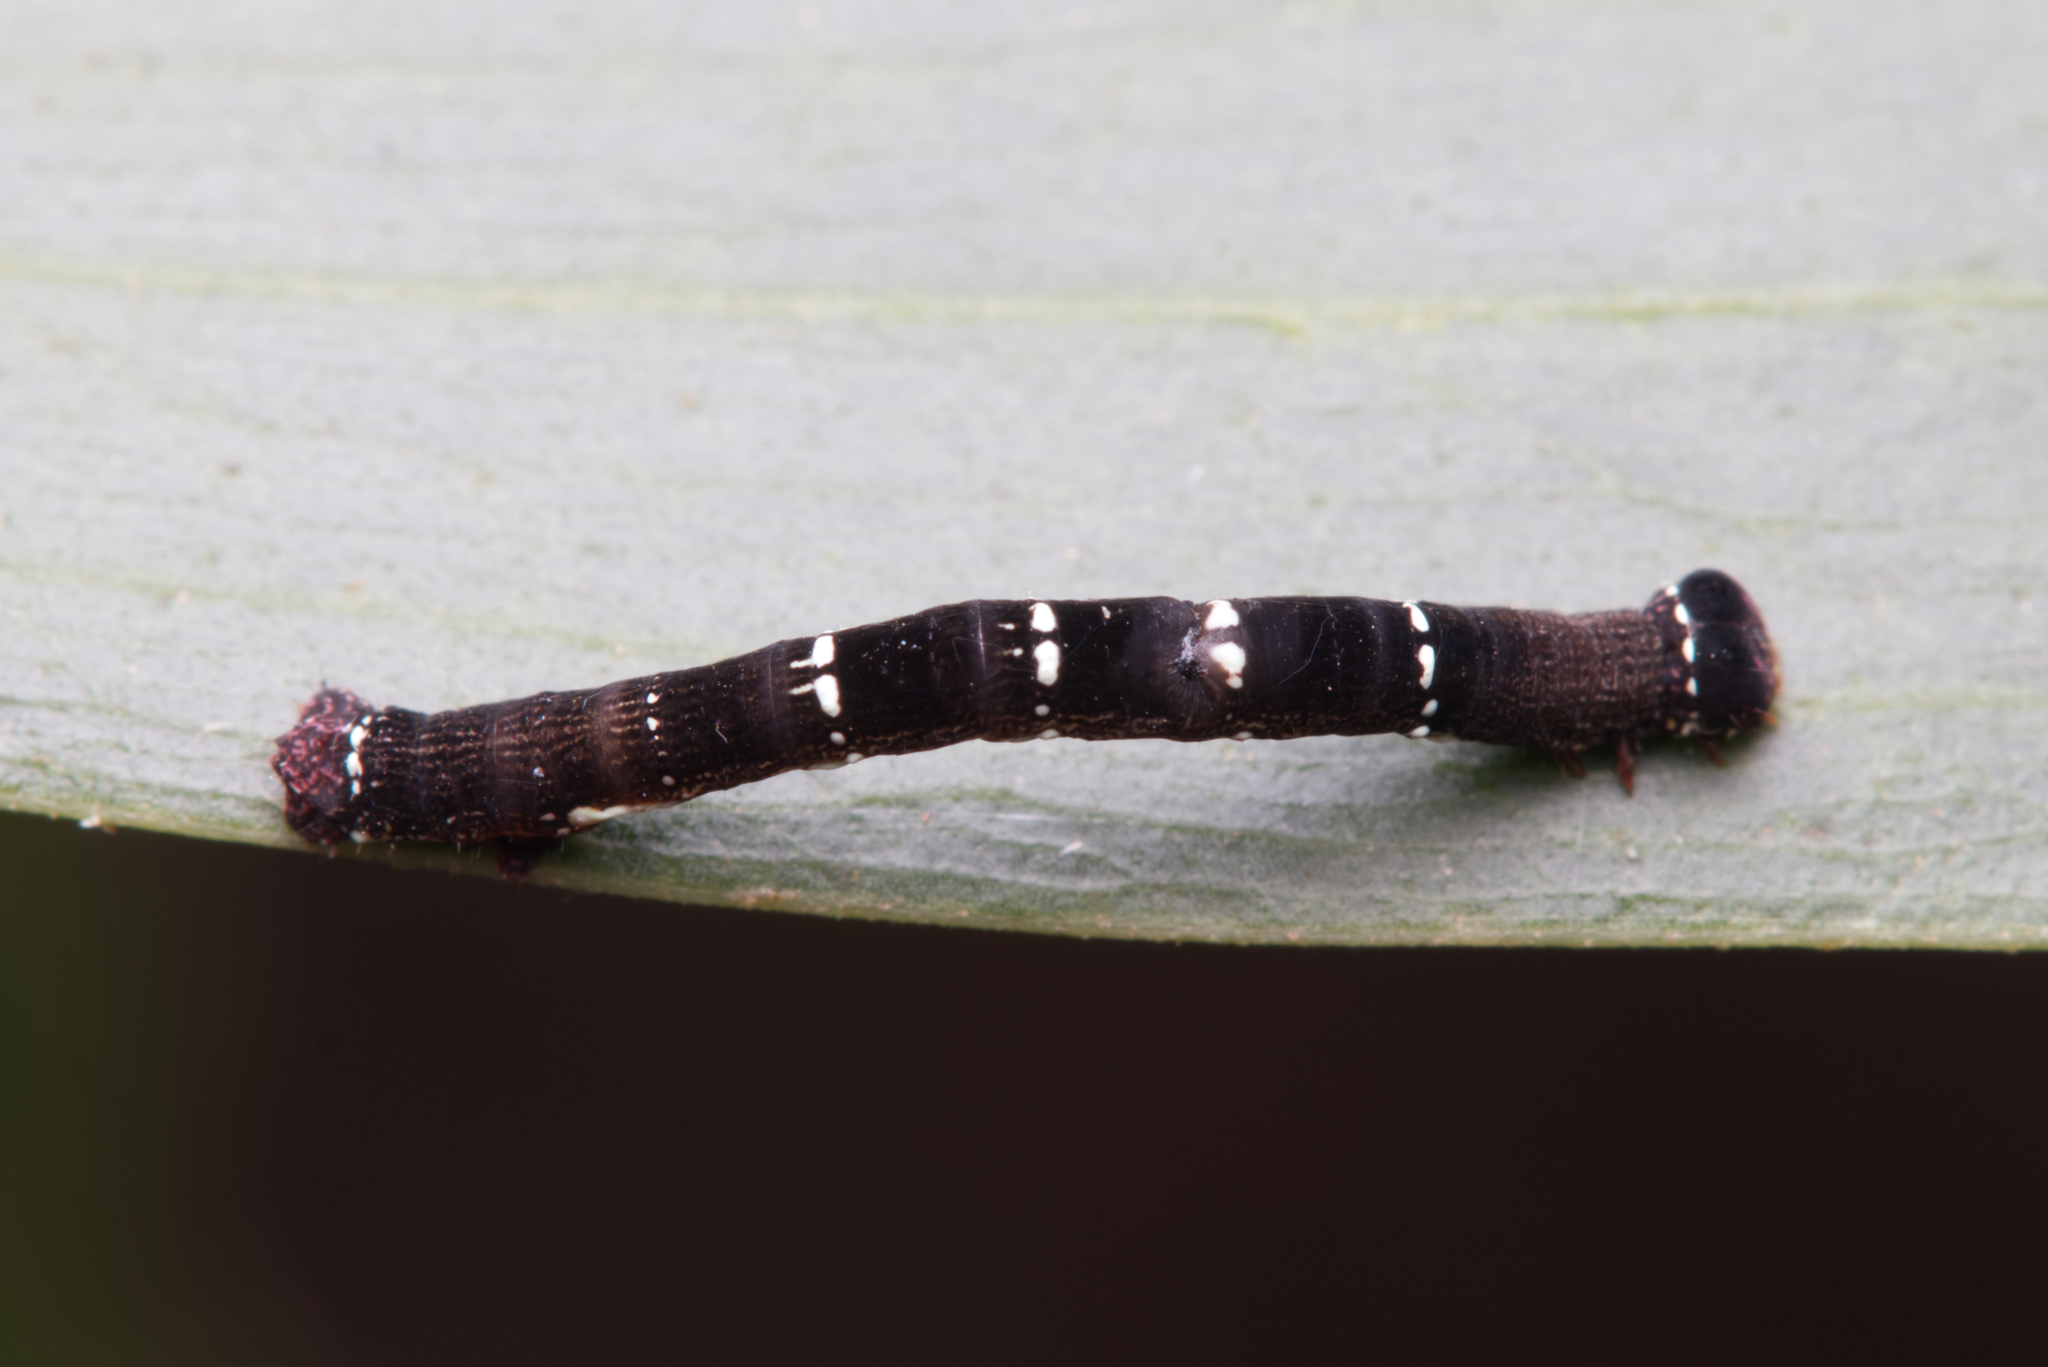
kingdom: Animalia
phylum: Arthropoda
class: Insecta
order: Lepidoptera
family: Geometridae
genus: Pholodes
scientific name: Pholodes sinistraria
